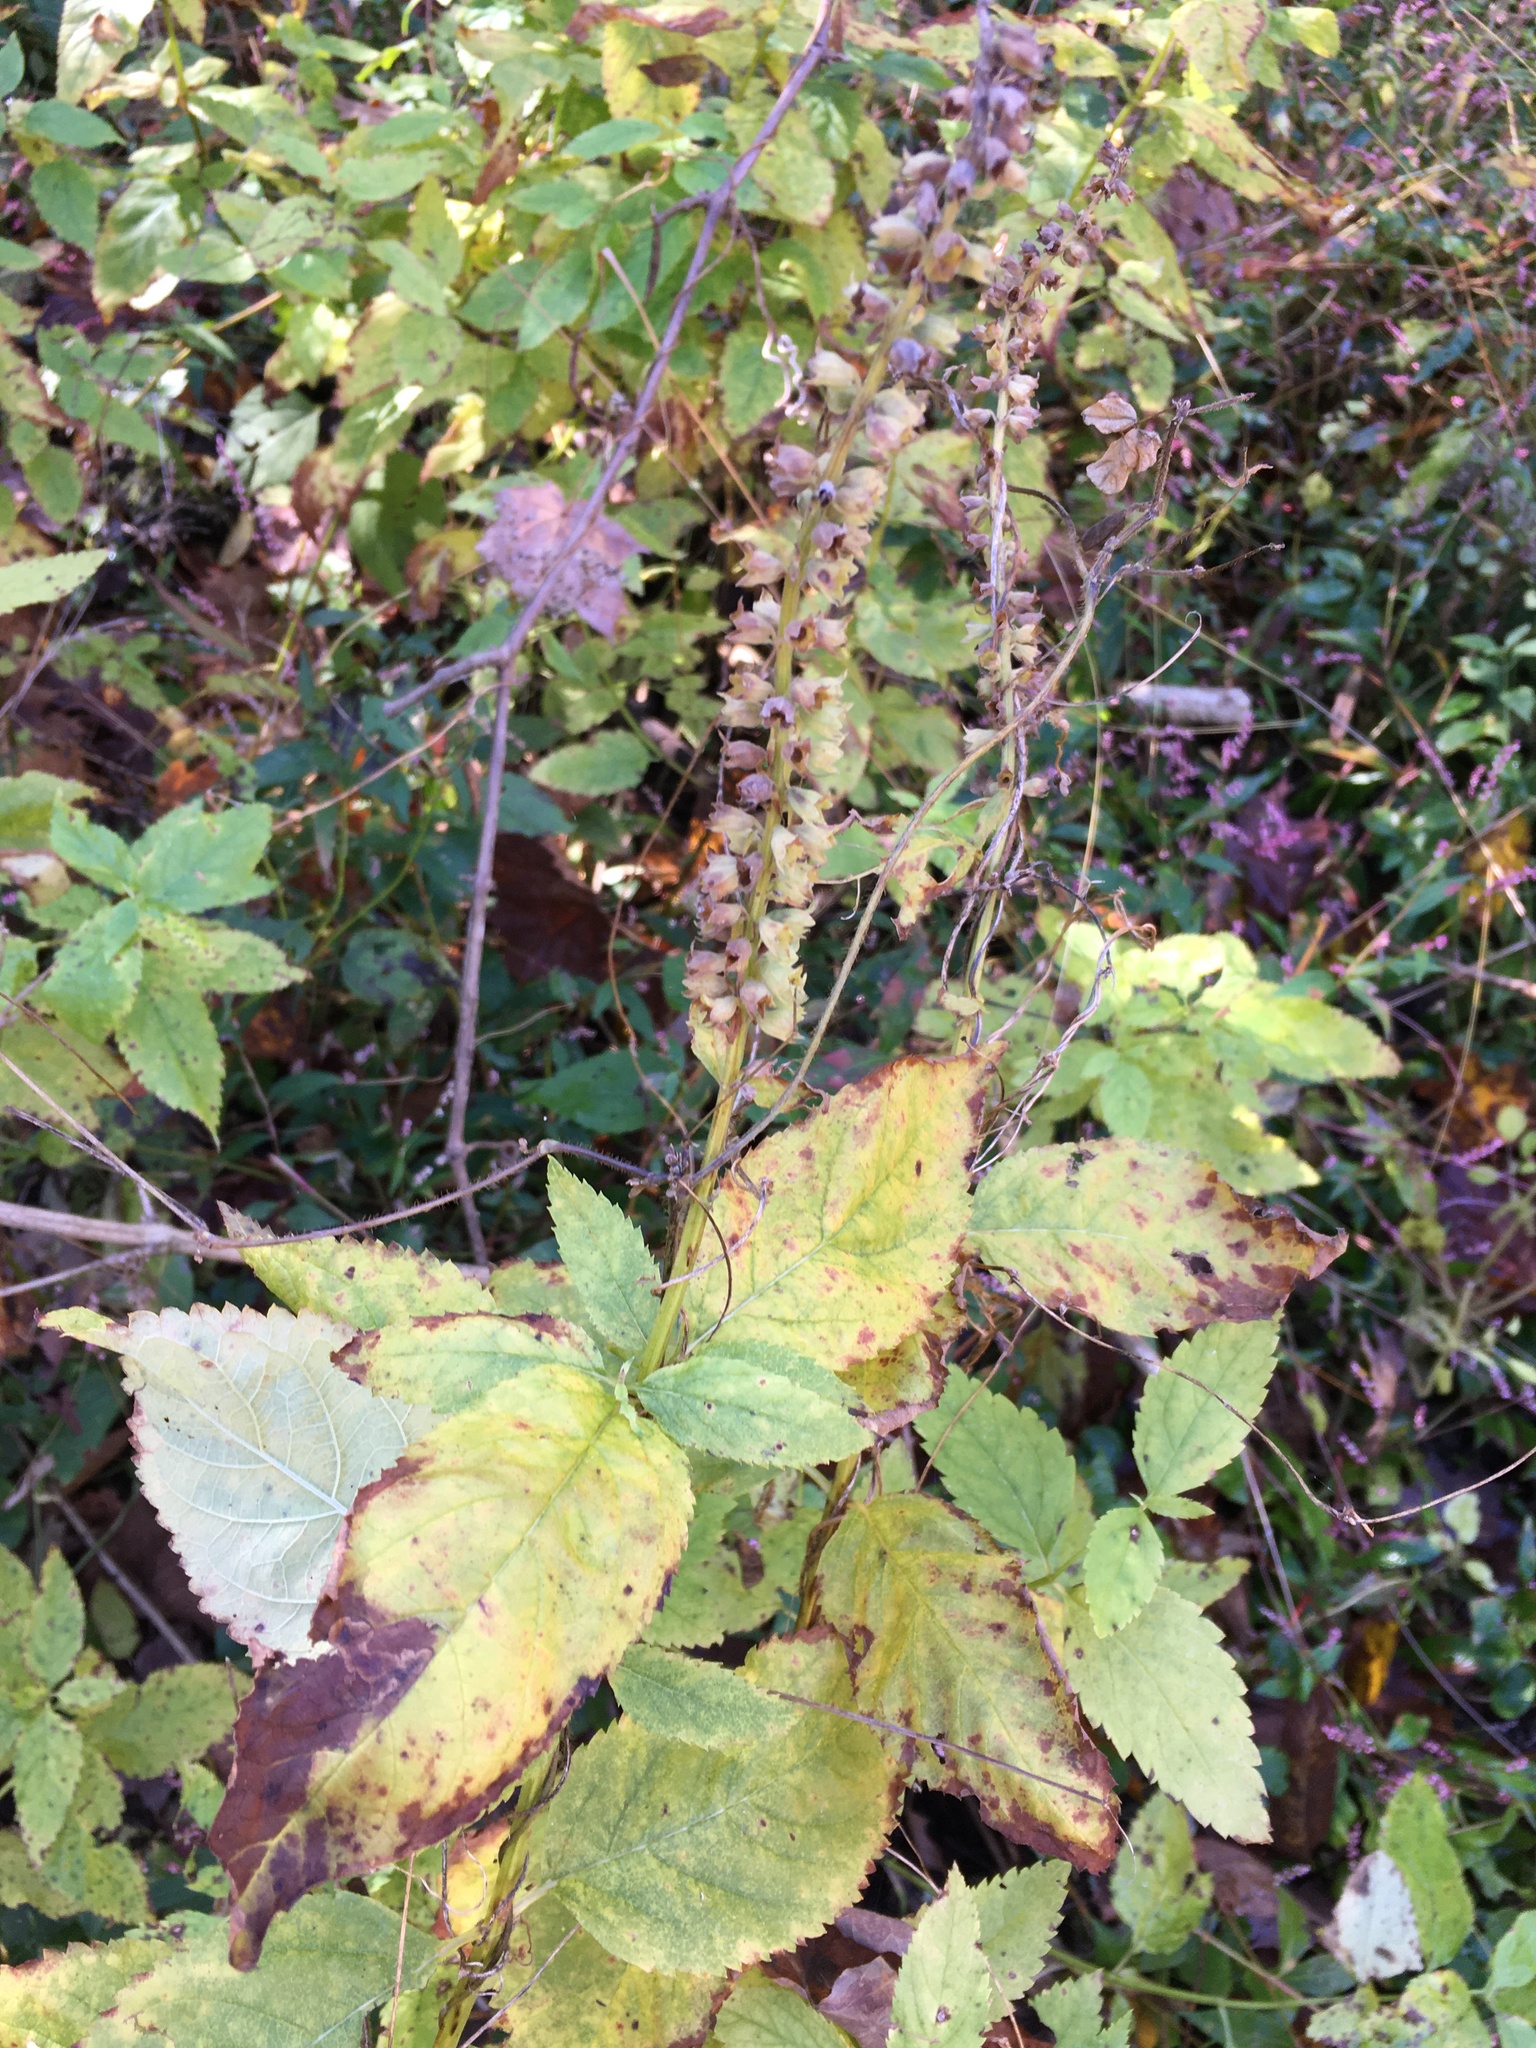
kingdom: Plantae
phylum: Tracheophyta
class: Magnoliopsida
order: Lamiales
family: Lamiaceae
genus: Teucrium
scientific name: Teucrium canadense
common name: American germander
